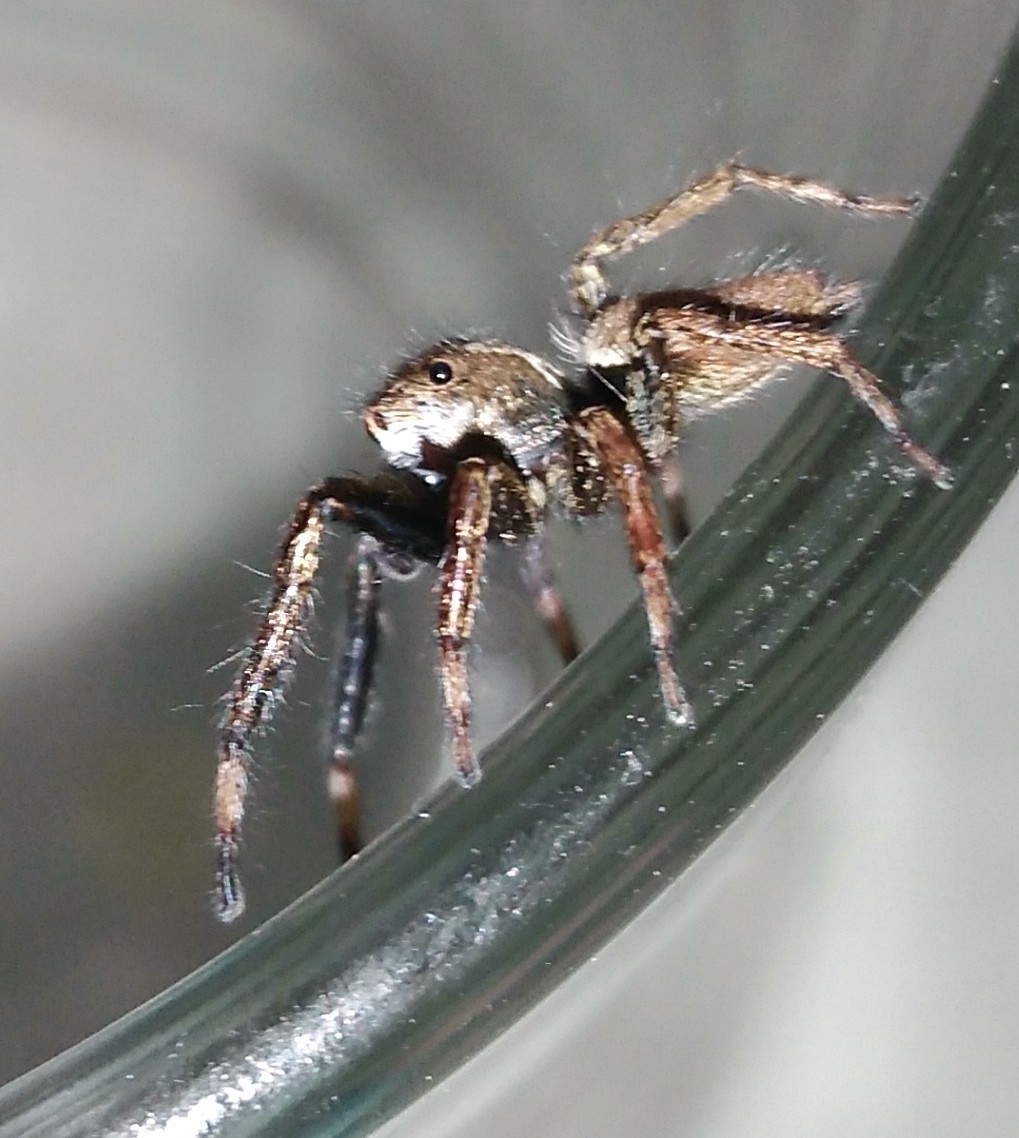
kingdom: Animalia
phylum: Arthropoda
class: Arachnida
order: Araneae
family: Salticidae
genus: Asaphobelis
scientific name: Asaphobelis physonychus
